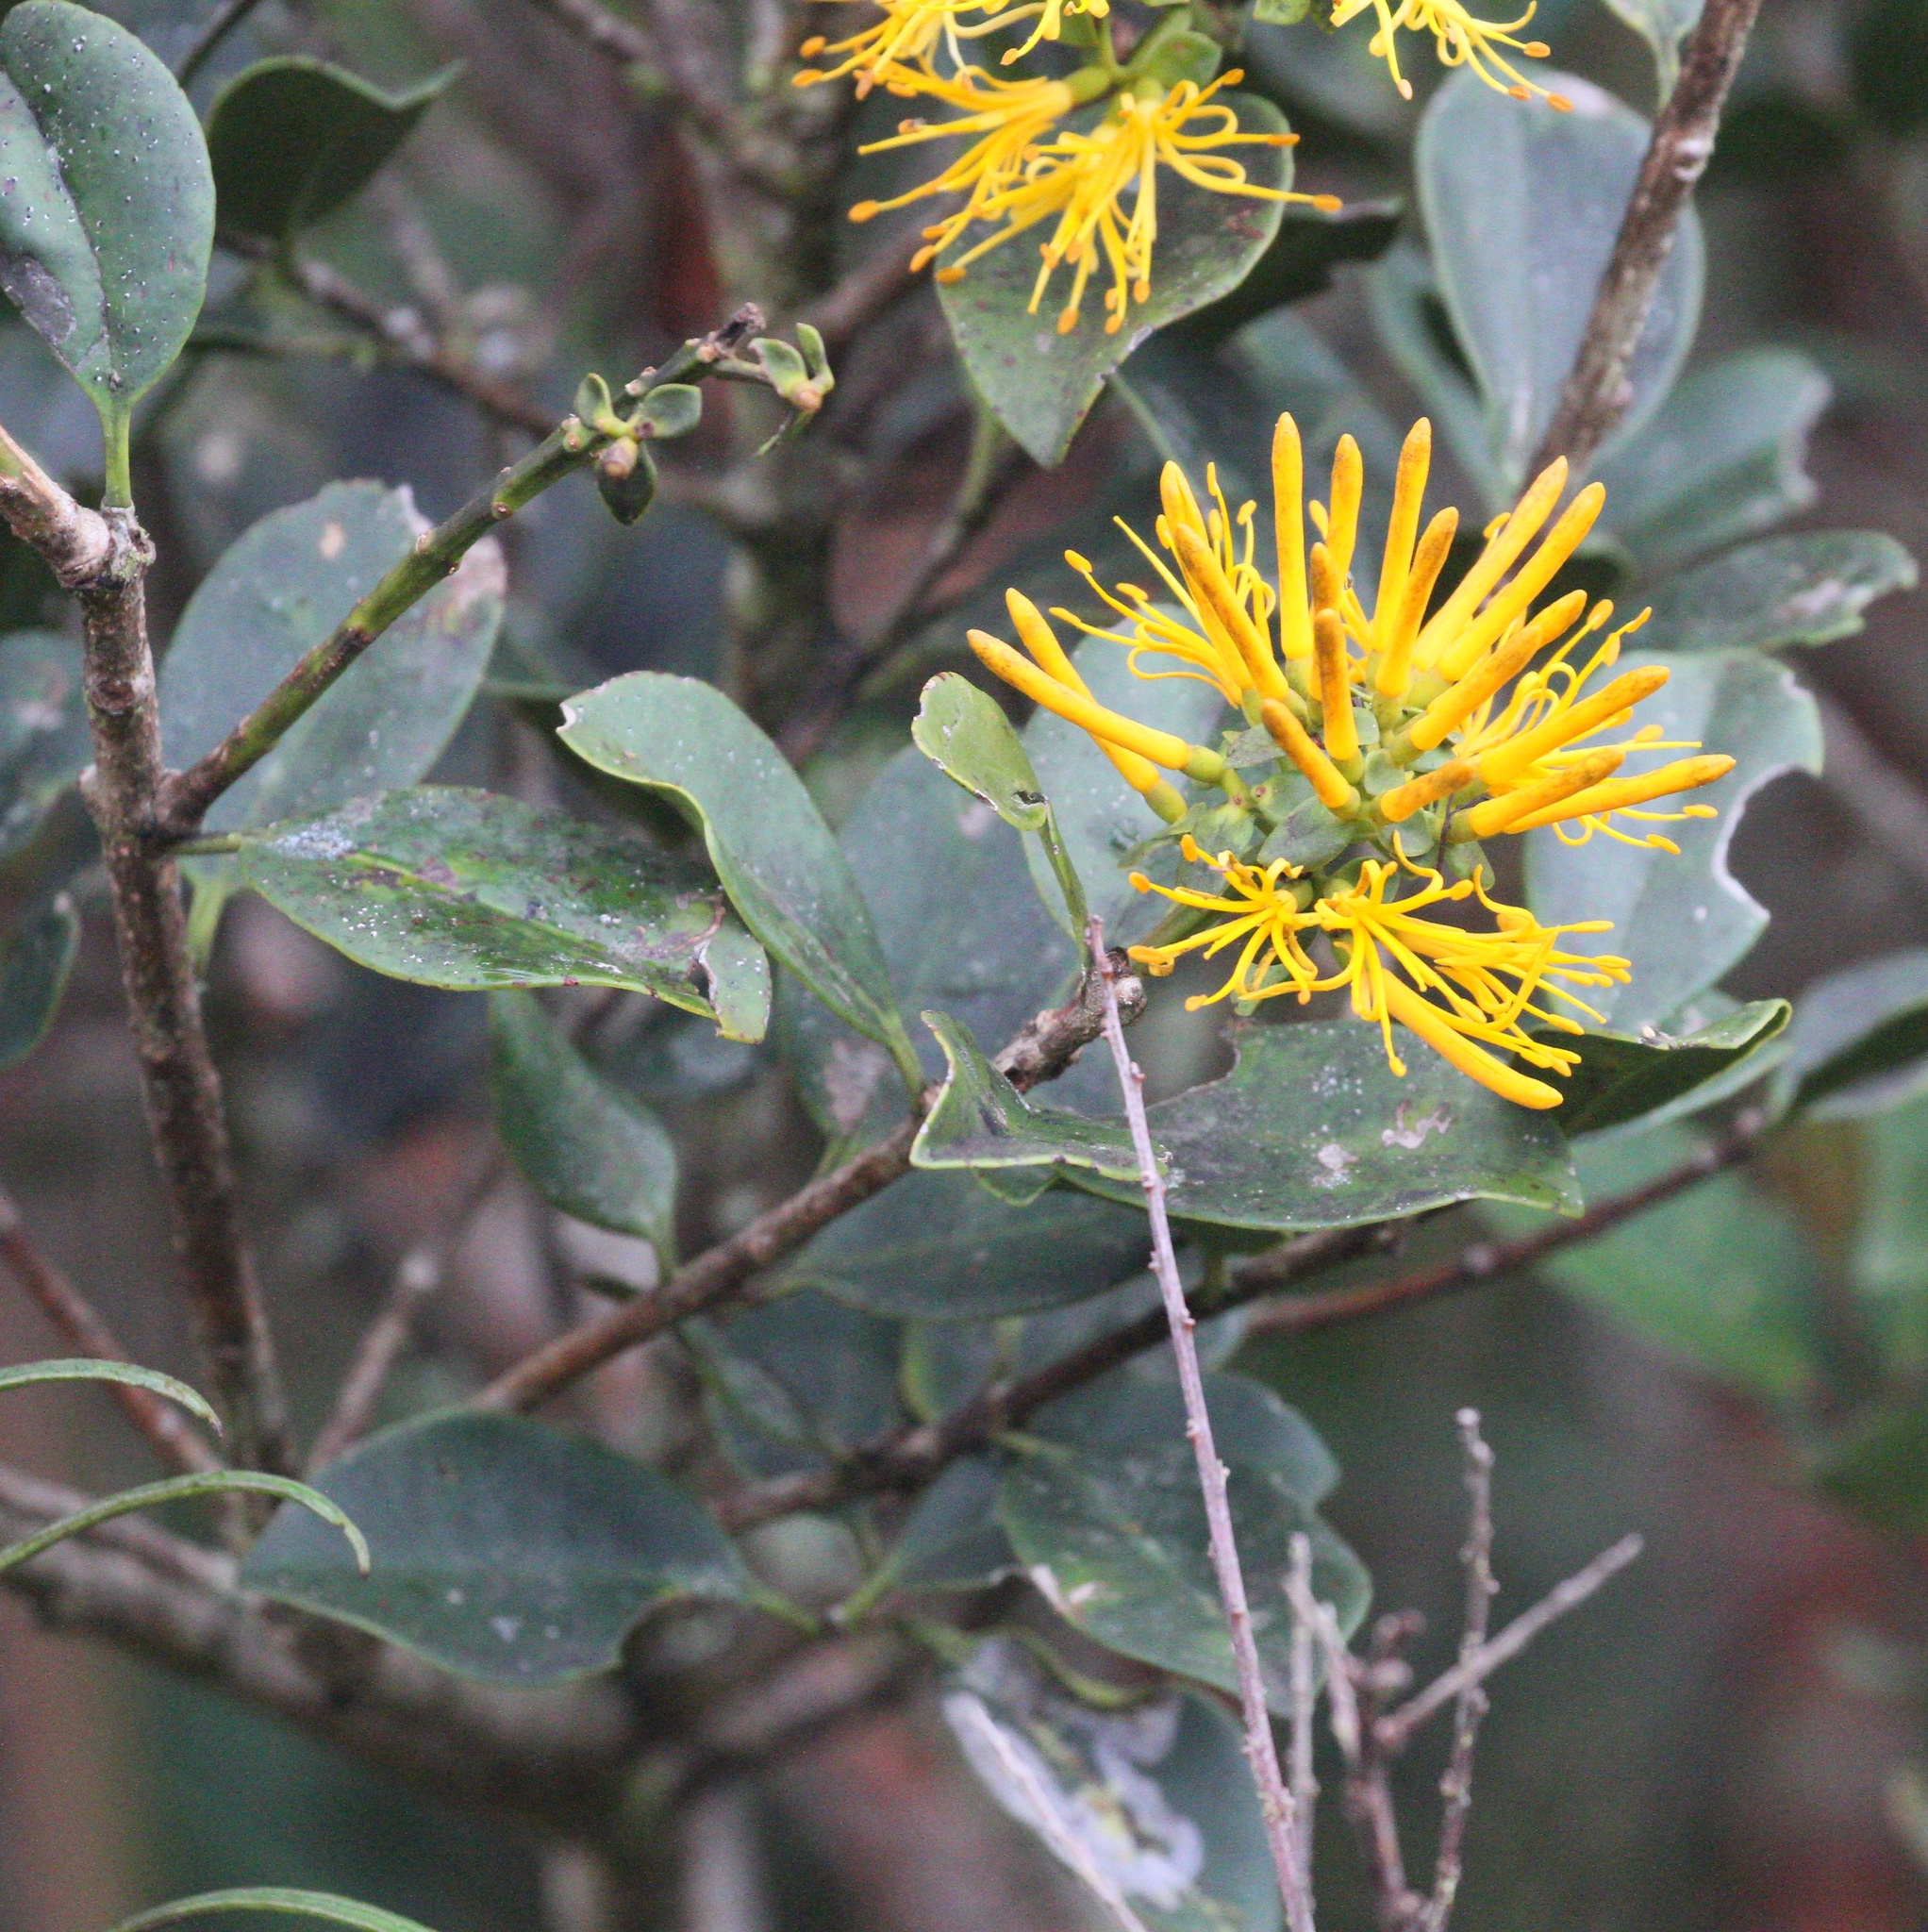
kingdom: Plantae
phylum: Tracheophyta
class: Magnoliopsida
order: Santalales
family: Loranthaceae
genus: Gaiadendron
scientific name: Gaiadendron punctatum
